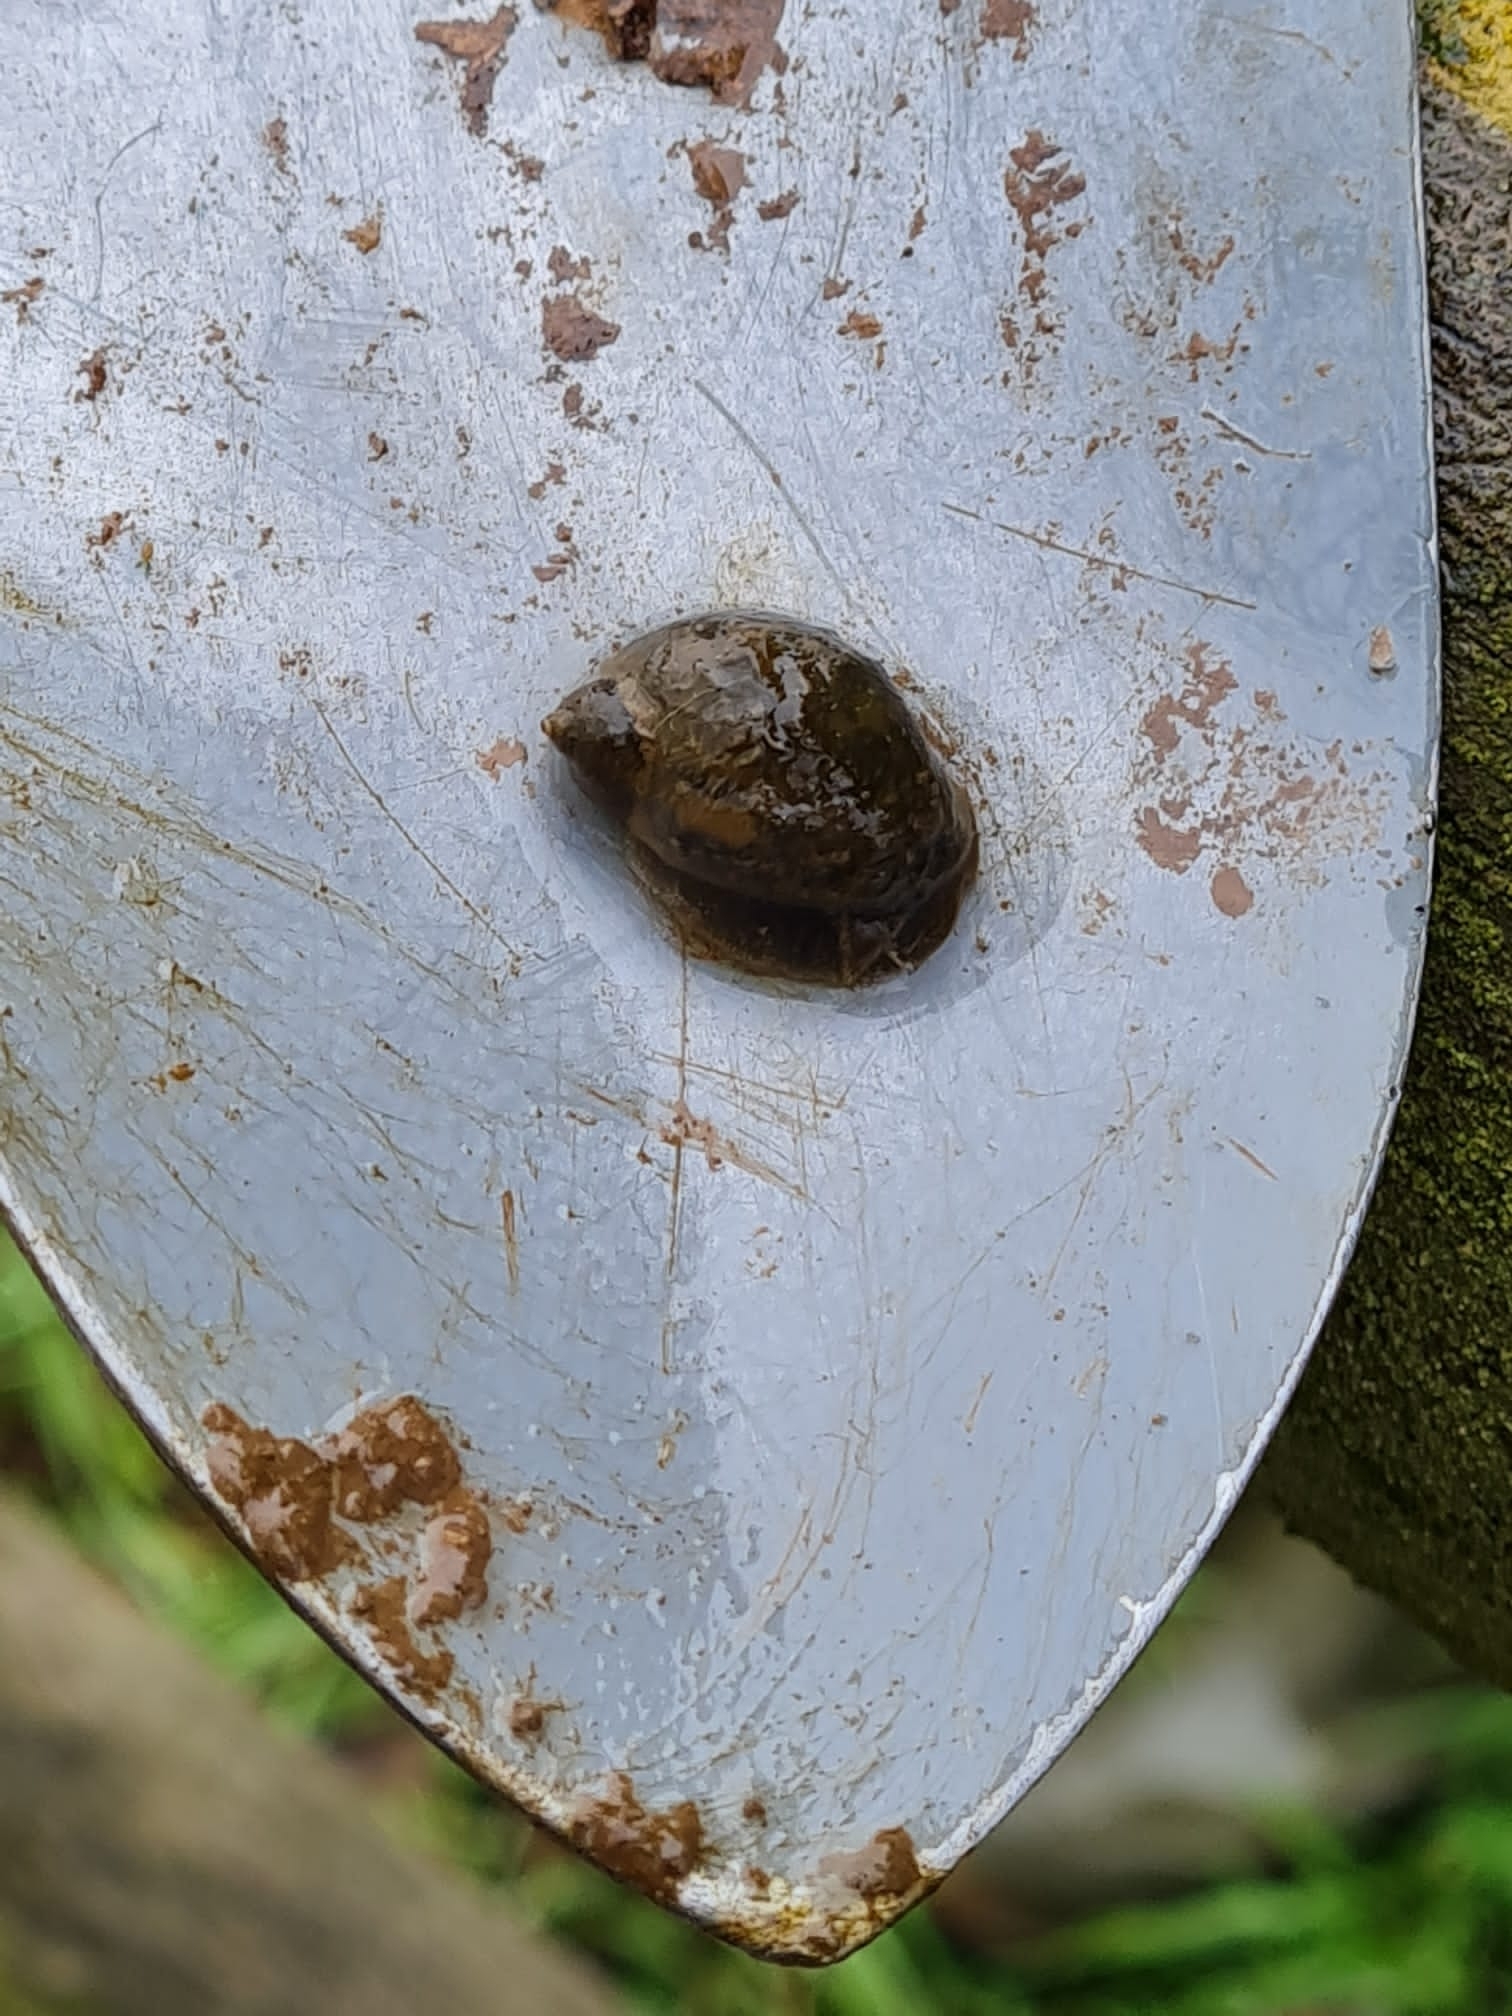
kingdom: Animalia
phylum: Mollusca
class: Gastropoda
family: Lymnaeidae
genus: Ampullaceana
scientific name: Ampullaceana balthica
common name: Wandering pond snail
